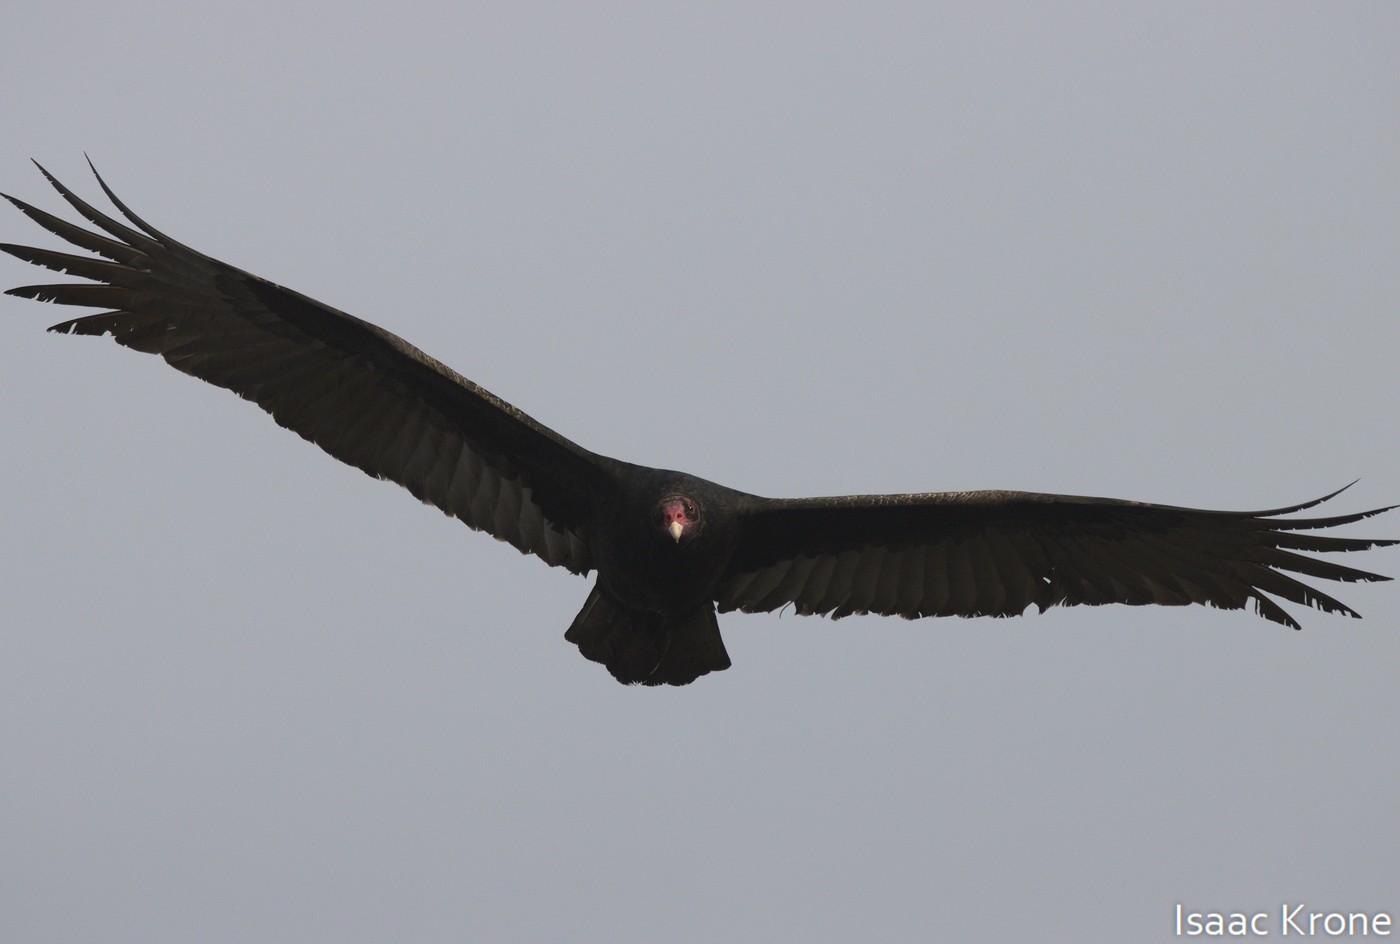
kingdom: Animalia
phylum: Chordata
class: Aves
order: Accipitriformes
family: Cathartidae
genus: Cathartes
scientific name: Cathartes aura
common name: Turkey vulture
